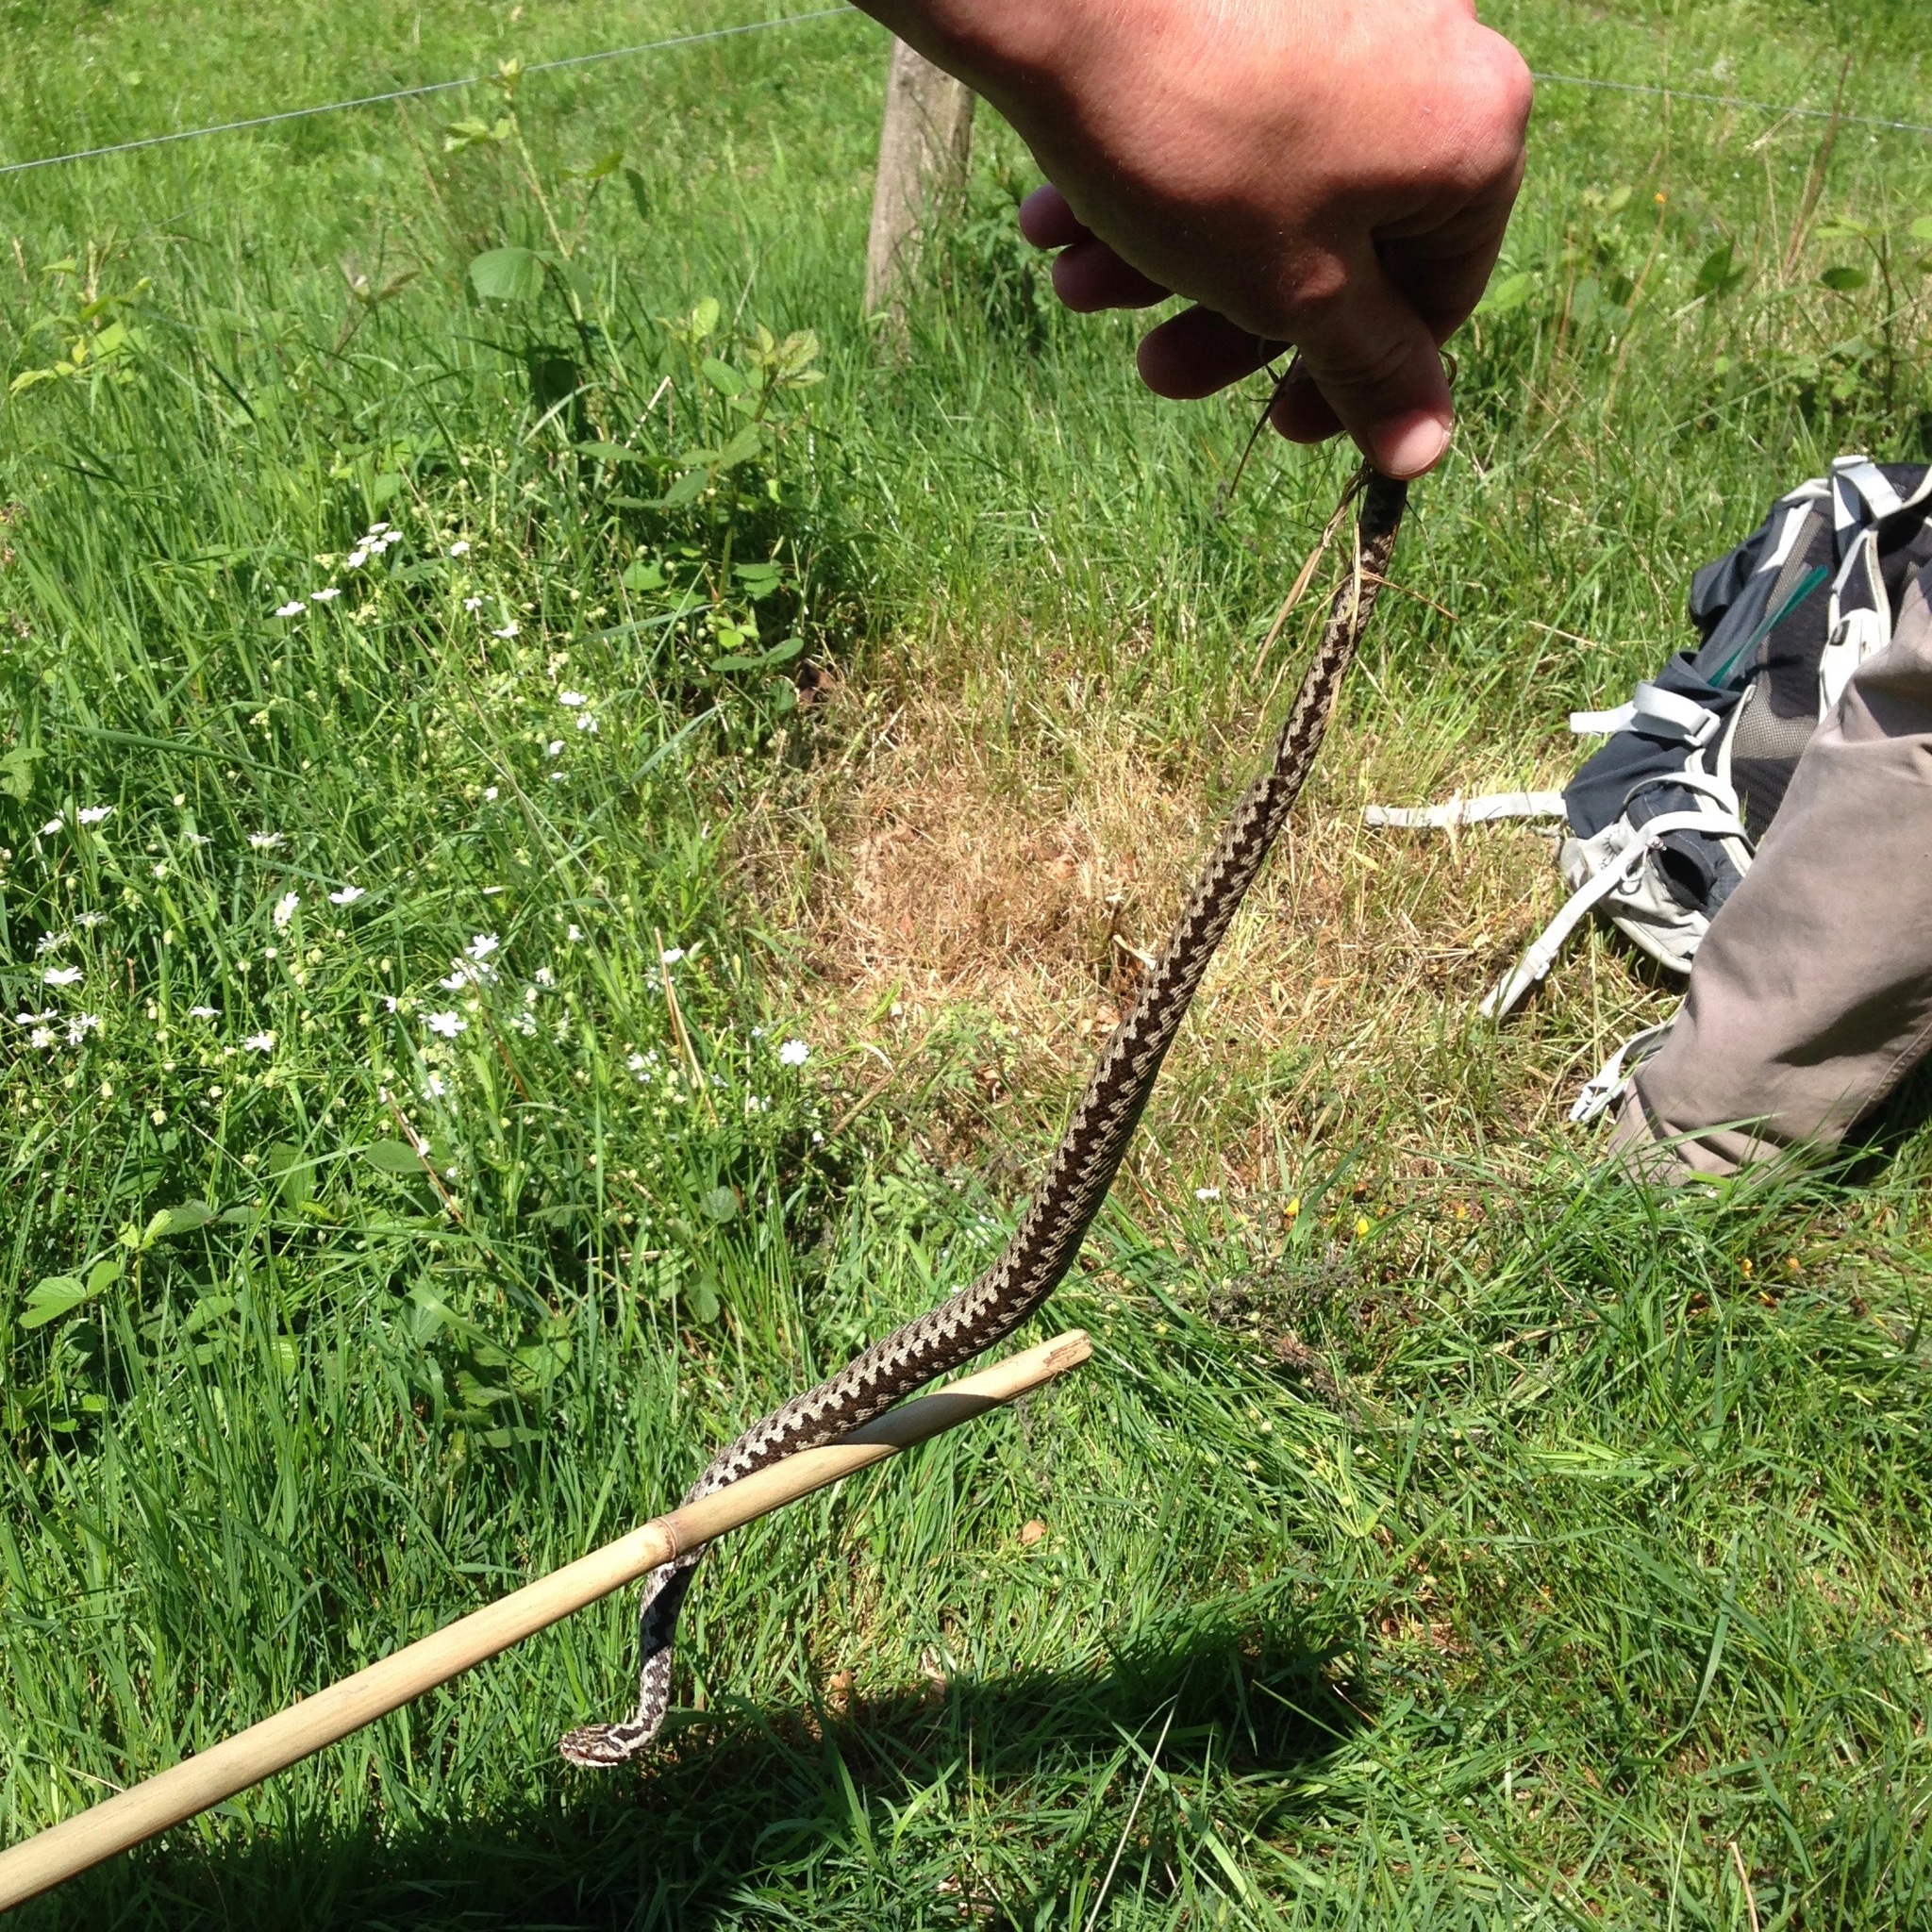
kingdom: Animalia
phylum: Chordata
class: Squamata
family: Viperidae
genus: Vipera
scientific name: Vipera berus
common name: Adder
